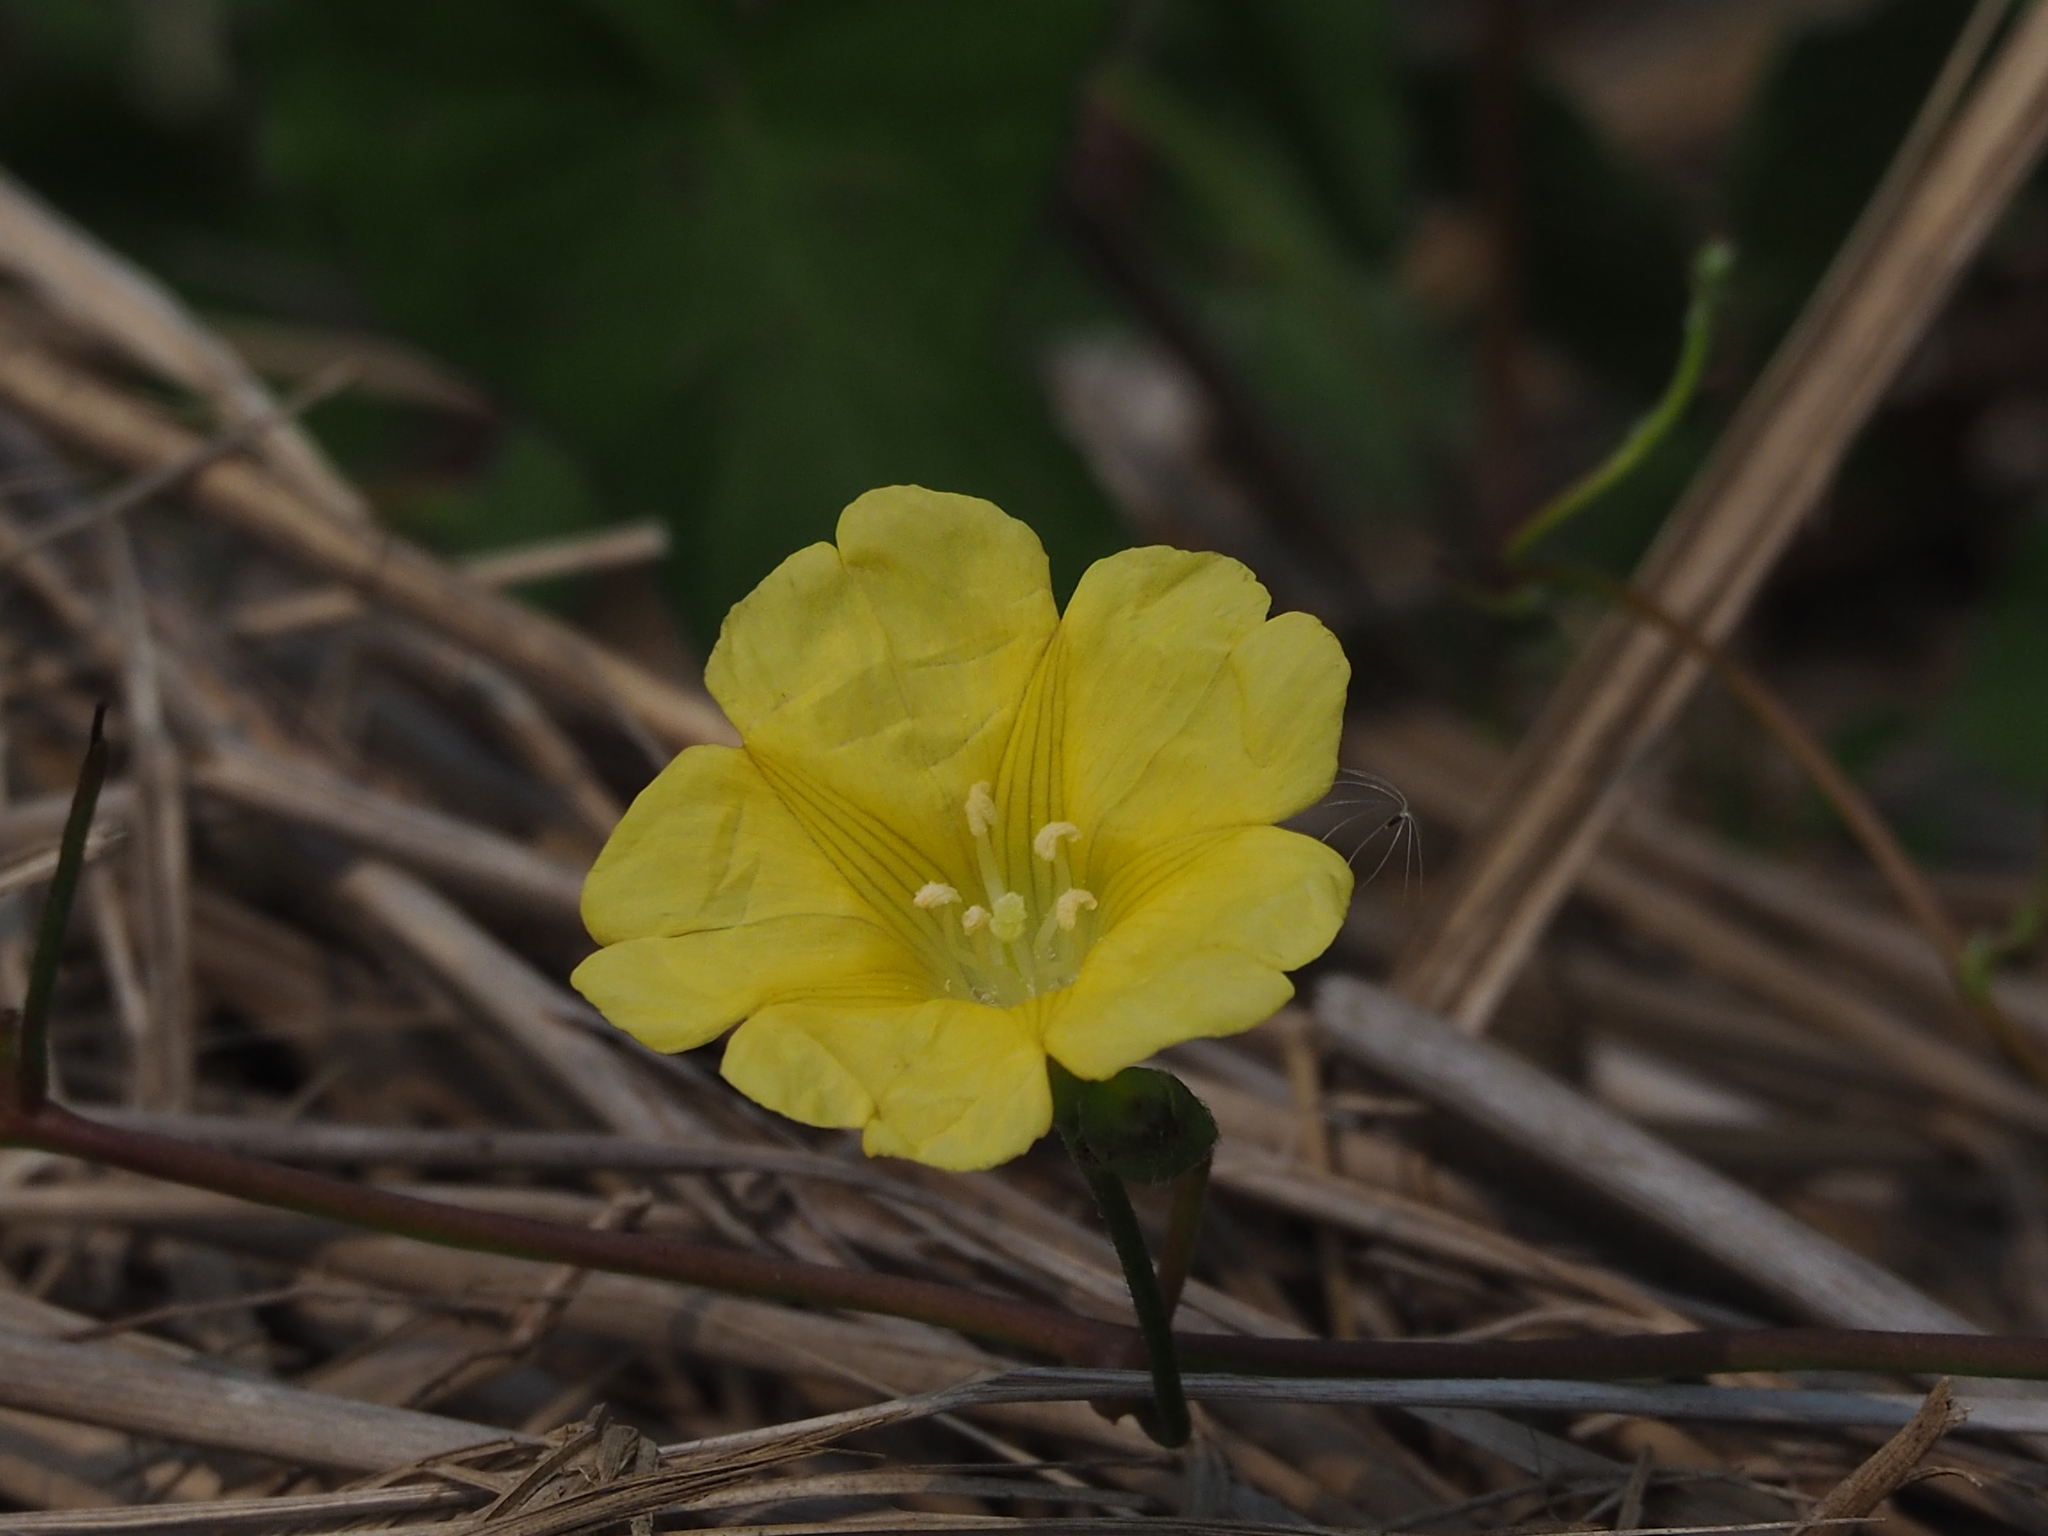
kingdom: Plantae
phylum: Tracheophyta
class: Magnoliopsida
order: Solanales
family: Convolvulaceae
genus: Merremia
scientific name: Merremia gemella
